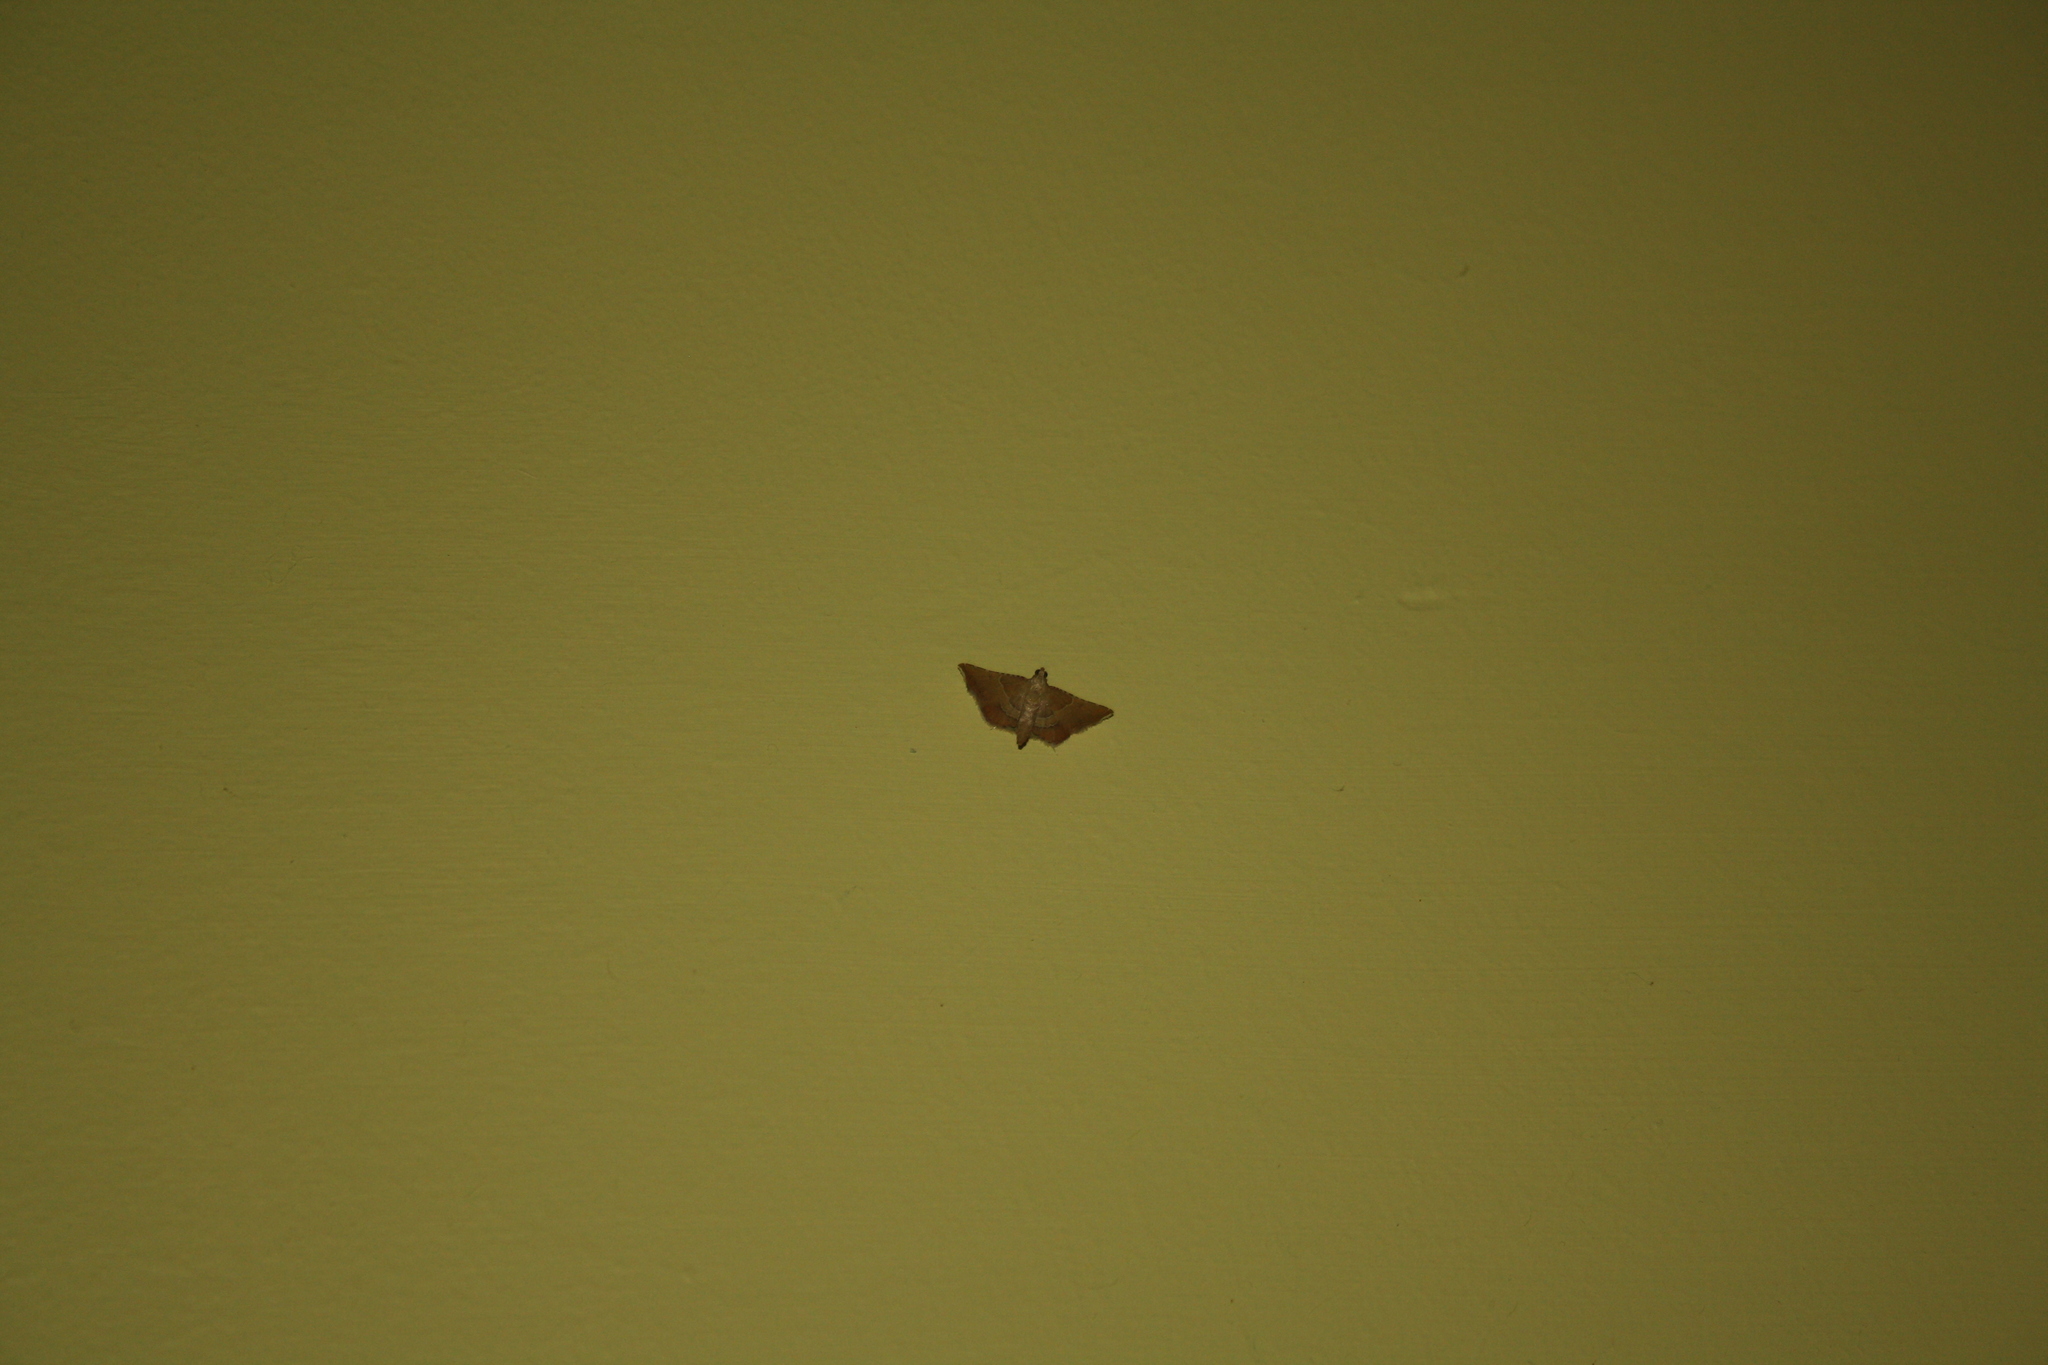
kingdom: Animalia
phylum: Arthropoda
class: Insecta
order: Lepidoptera
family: Pyralidae
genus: Endotricha
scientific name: Endotricha flammealis
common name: Rosy tabby
